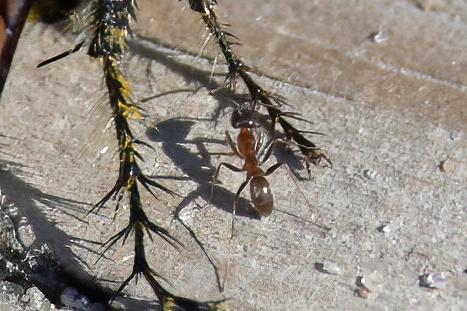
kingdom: Animalia
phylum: Arthropoda
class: Insecta
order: Hymenoptera
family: Formicidae
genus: Dorymyrmex
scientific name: Dorymyrmex bureni
